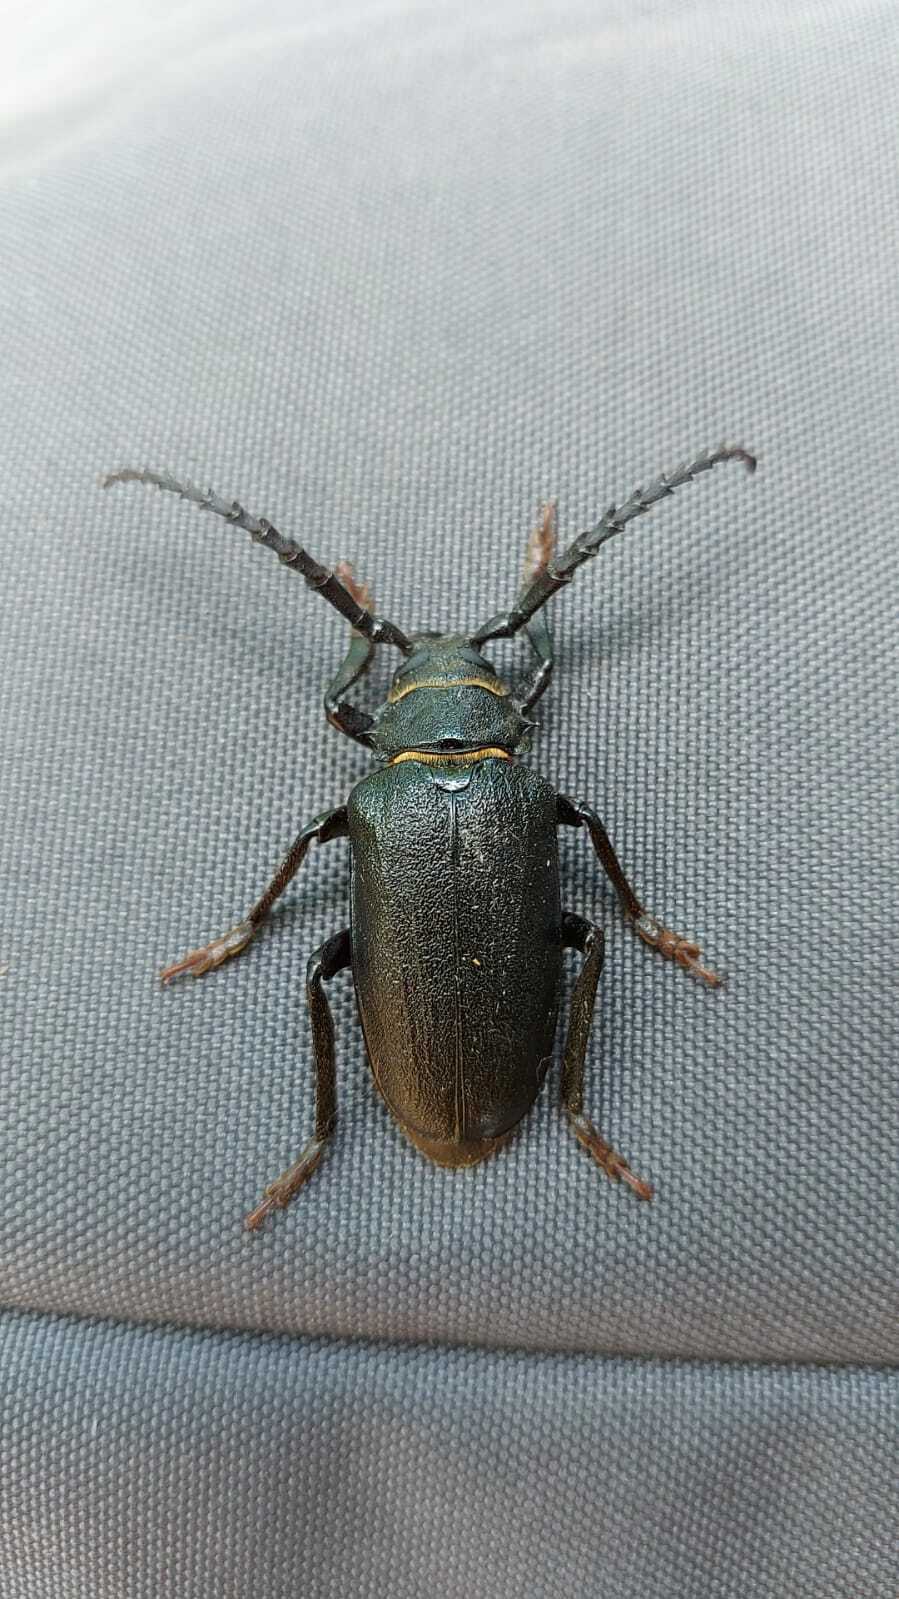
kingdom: Animalia
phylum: Arthropoda
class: Insecta
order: Coleoptera
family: Cerambycidae
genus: Prionus
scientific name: Prionus coriarius
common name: Tanner beetle
